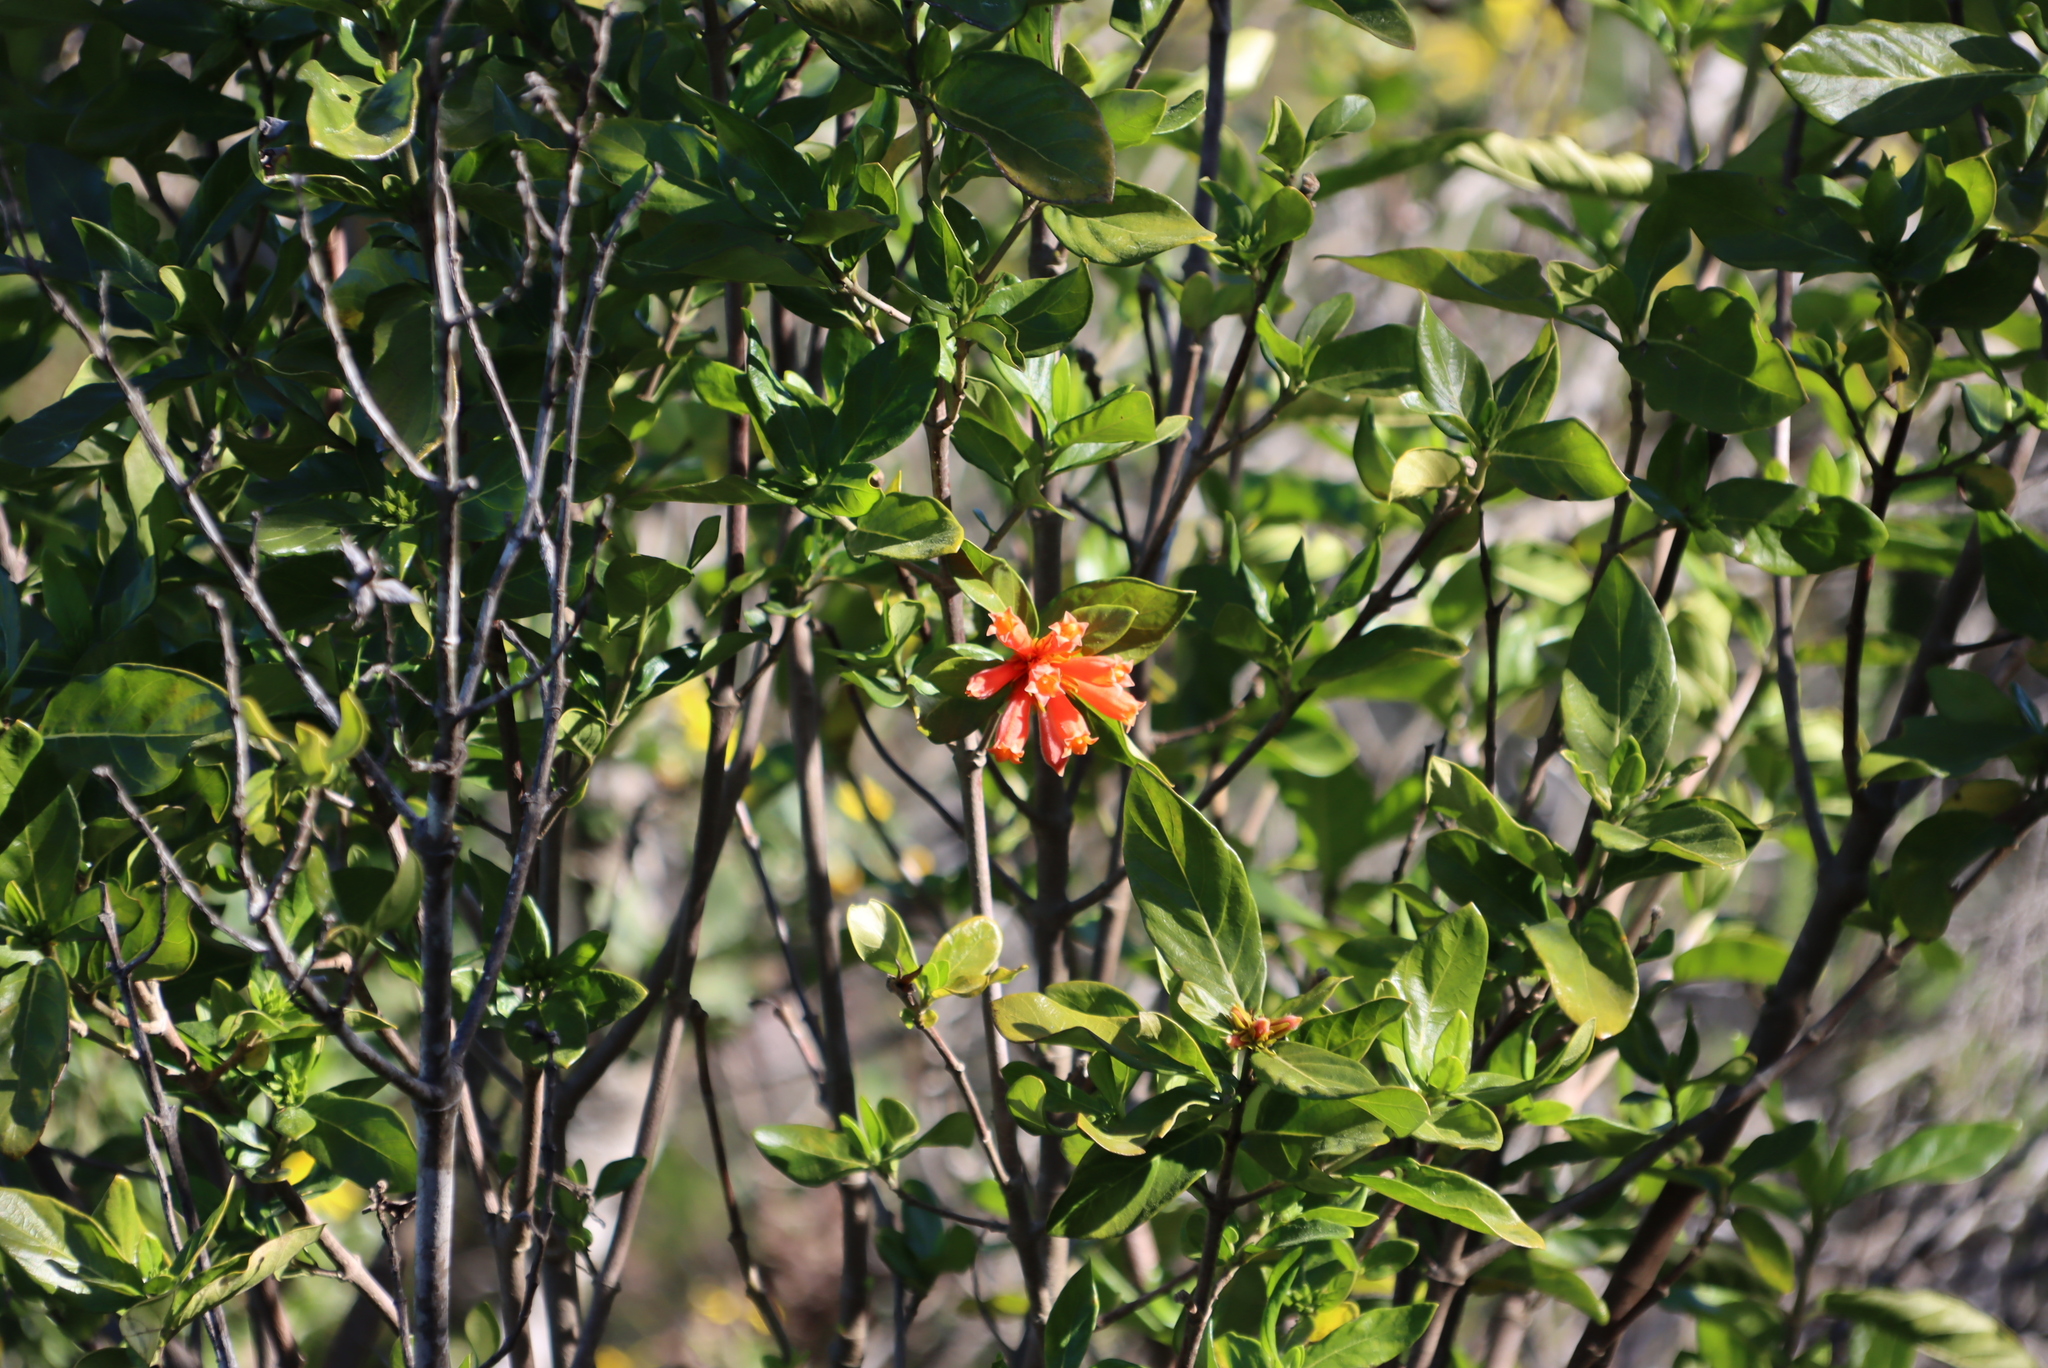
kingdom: Plantae
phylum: Tracheophyta
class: Magnoliopsida
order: Gentianales
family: Rubiaceae
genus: Burchellia
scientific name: Burchellia bubalina
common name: Wild pomegranate
